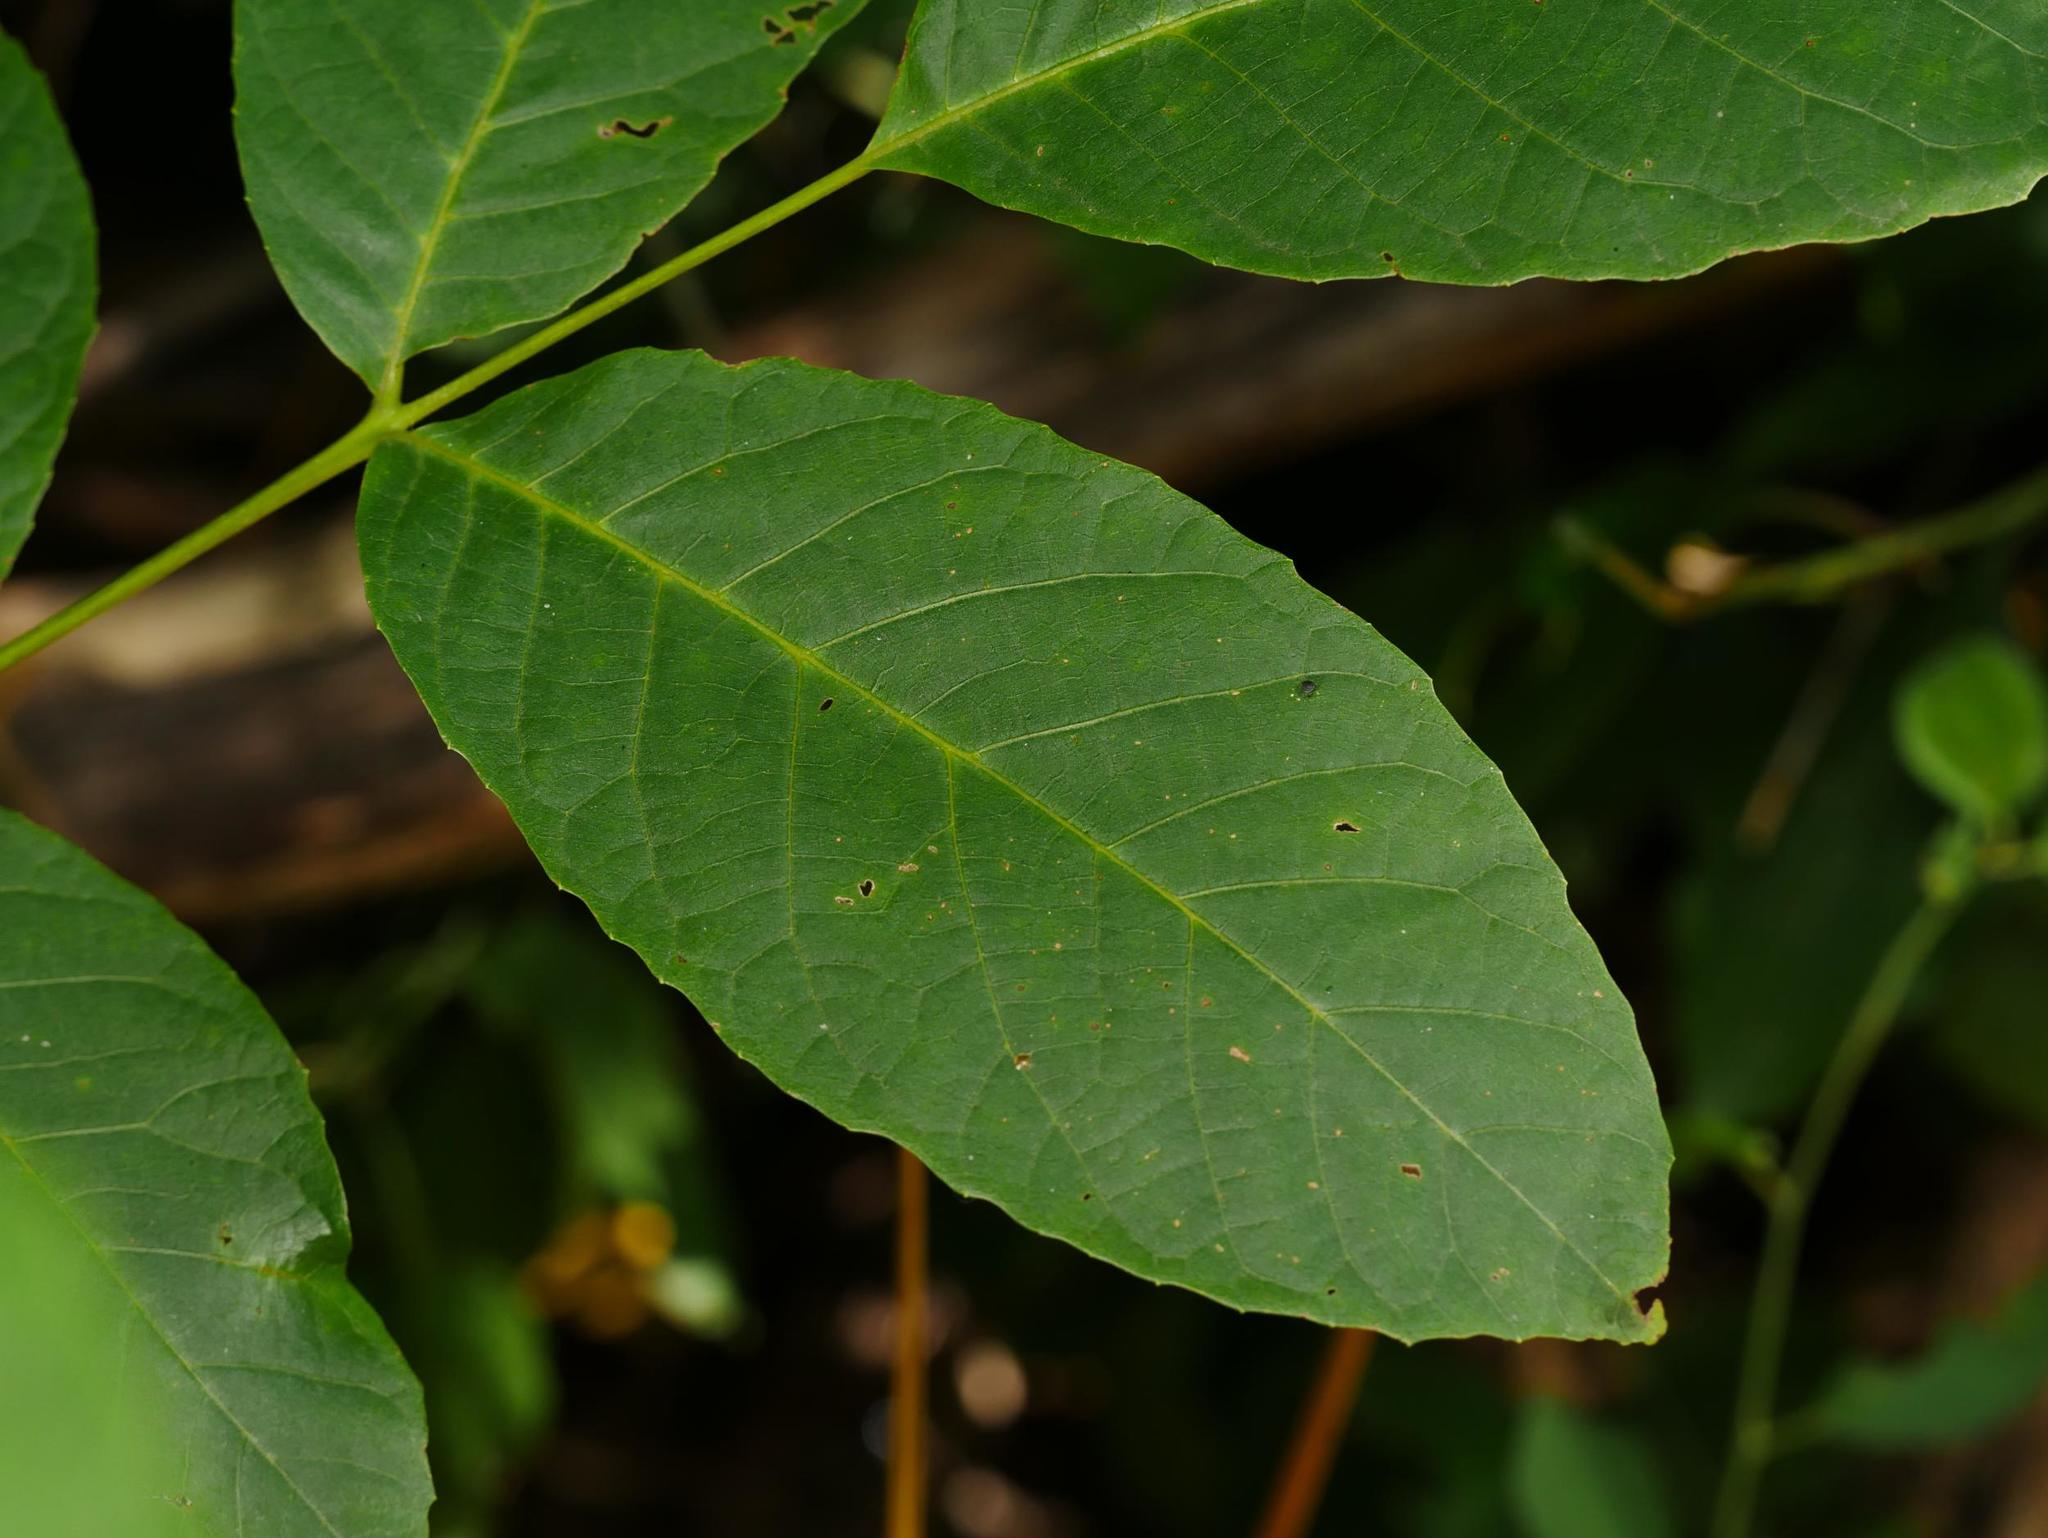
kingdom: Plantae
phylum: Tracheophyta
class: Magnoliopsida
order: Fagales
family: Juglandaceae
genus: Juglans
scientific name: Juglans regia
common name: Walnut
